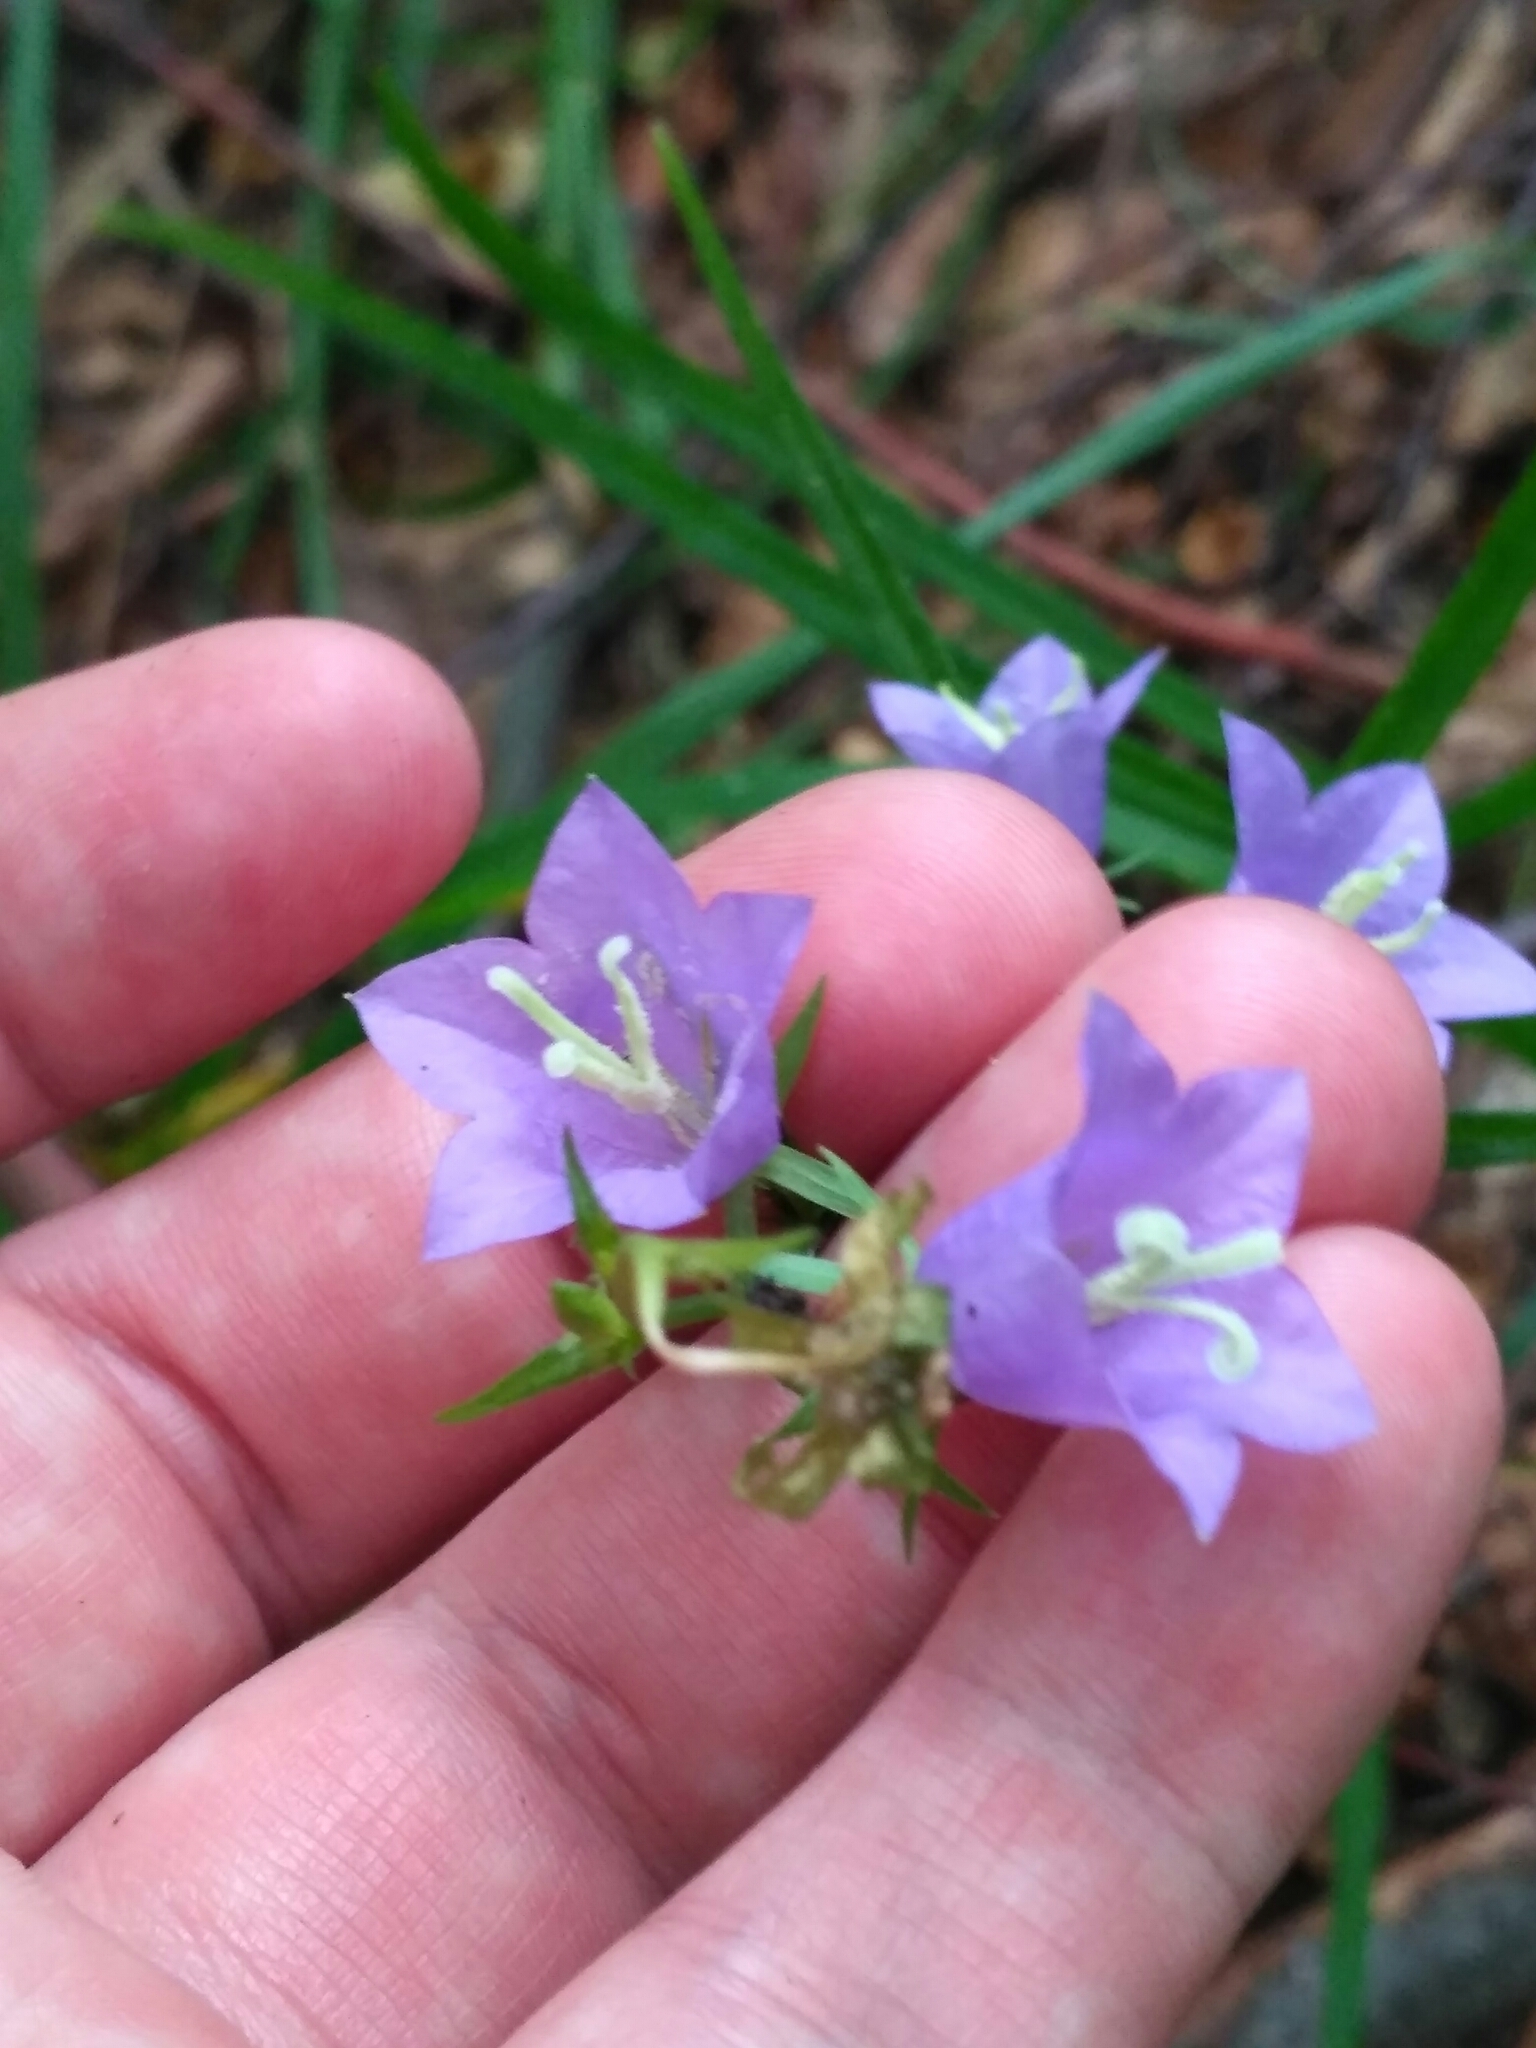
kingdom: Plantae
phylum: Tracheophyta
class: Magnoliopsida
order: Asterales
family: Campanulaceae
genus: Campanula
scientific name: Campanula persicifolia
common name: Peach-leaved bellflower
